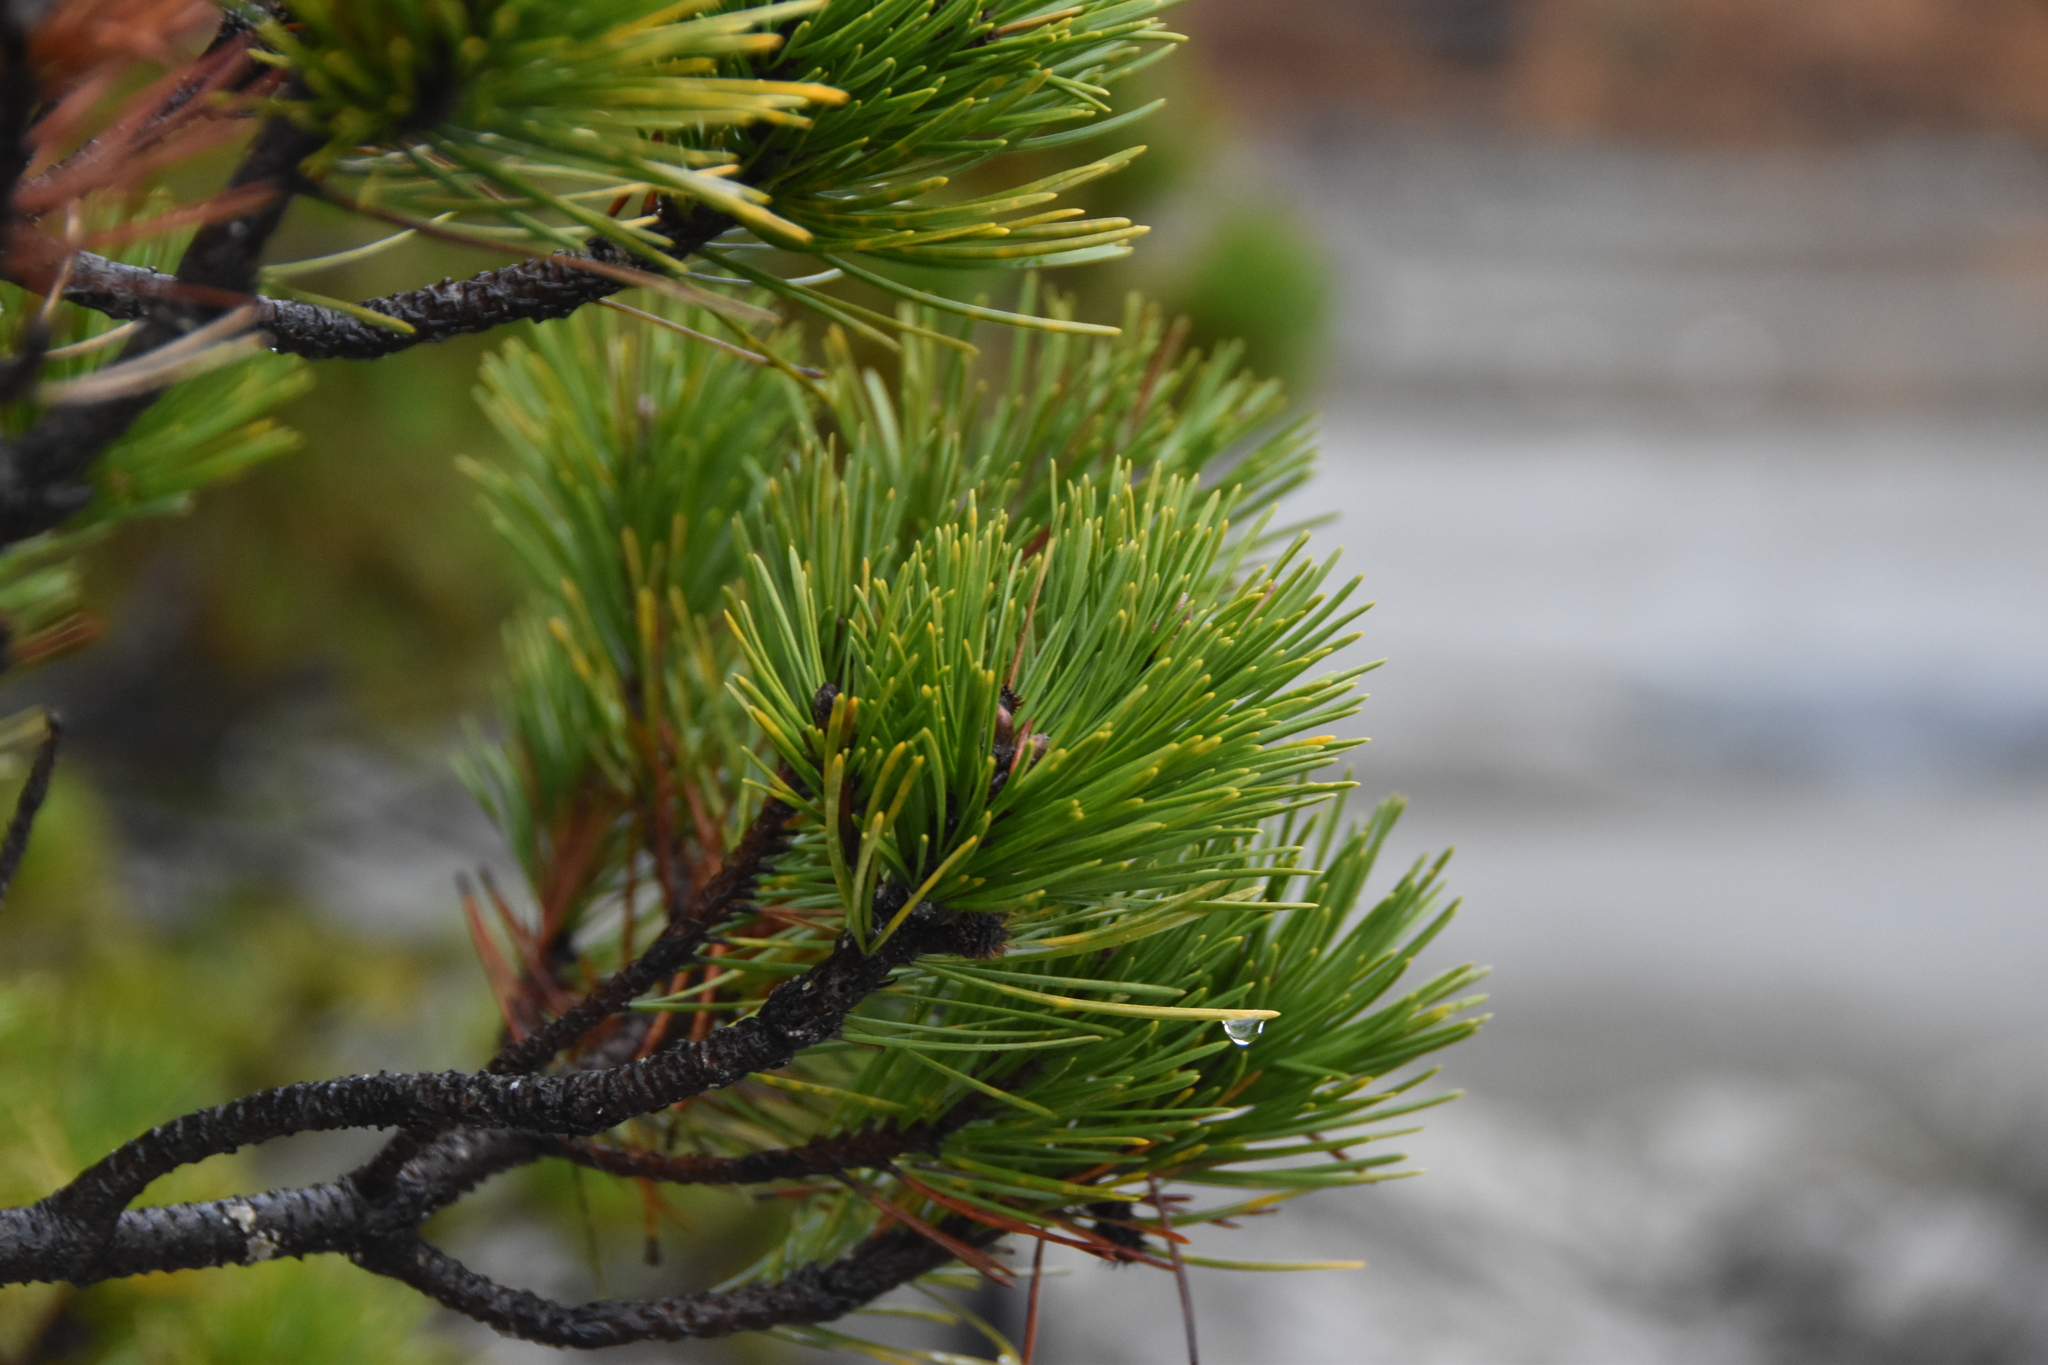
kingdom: Plantae
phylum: Tracheophyta
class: Pinopsida
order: Pinales
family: Pinaceae
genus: Pinus
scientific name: Pinus contorta
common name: Lodgepole pine
